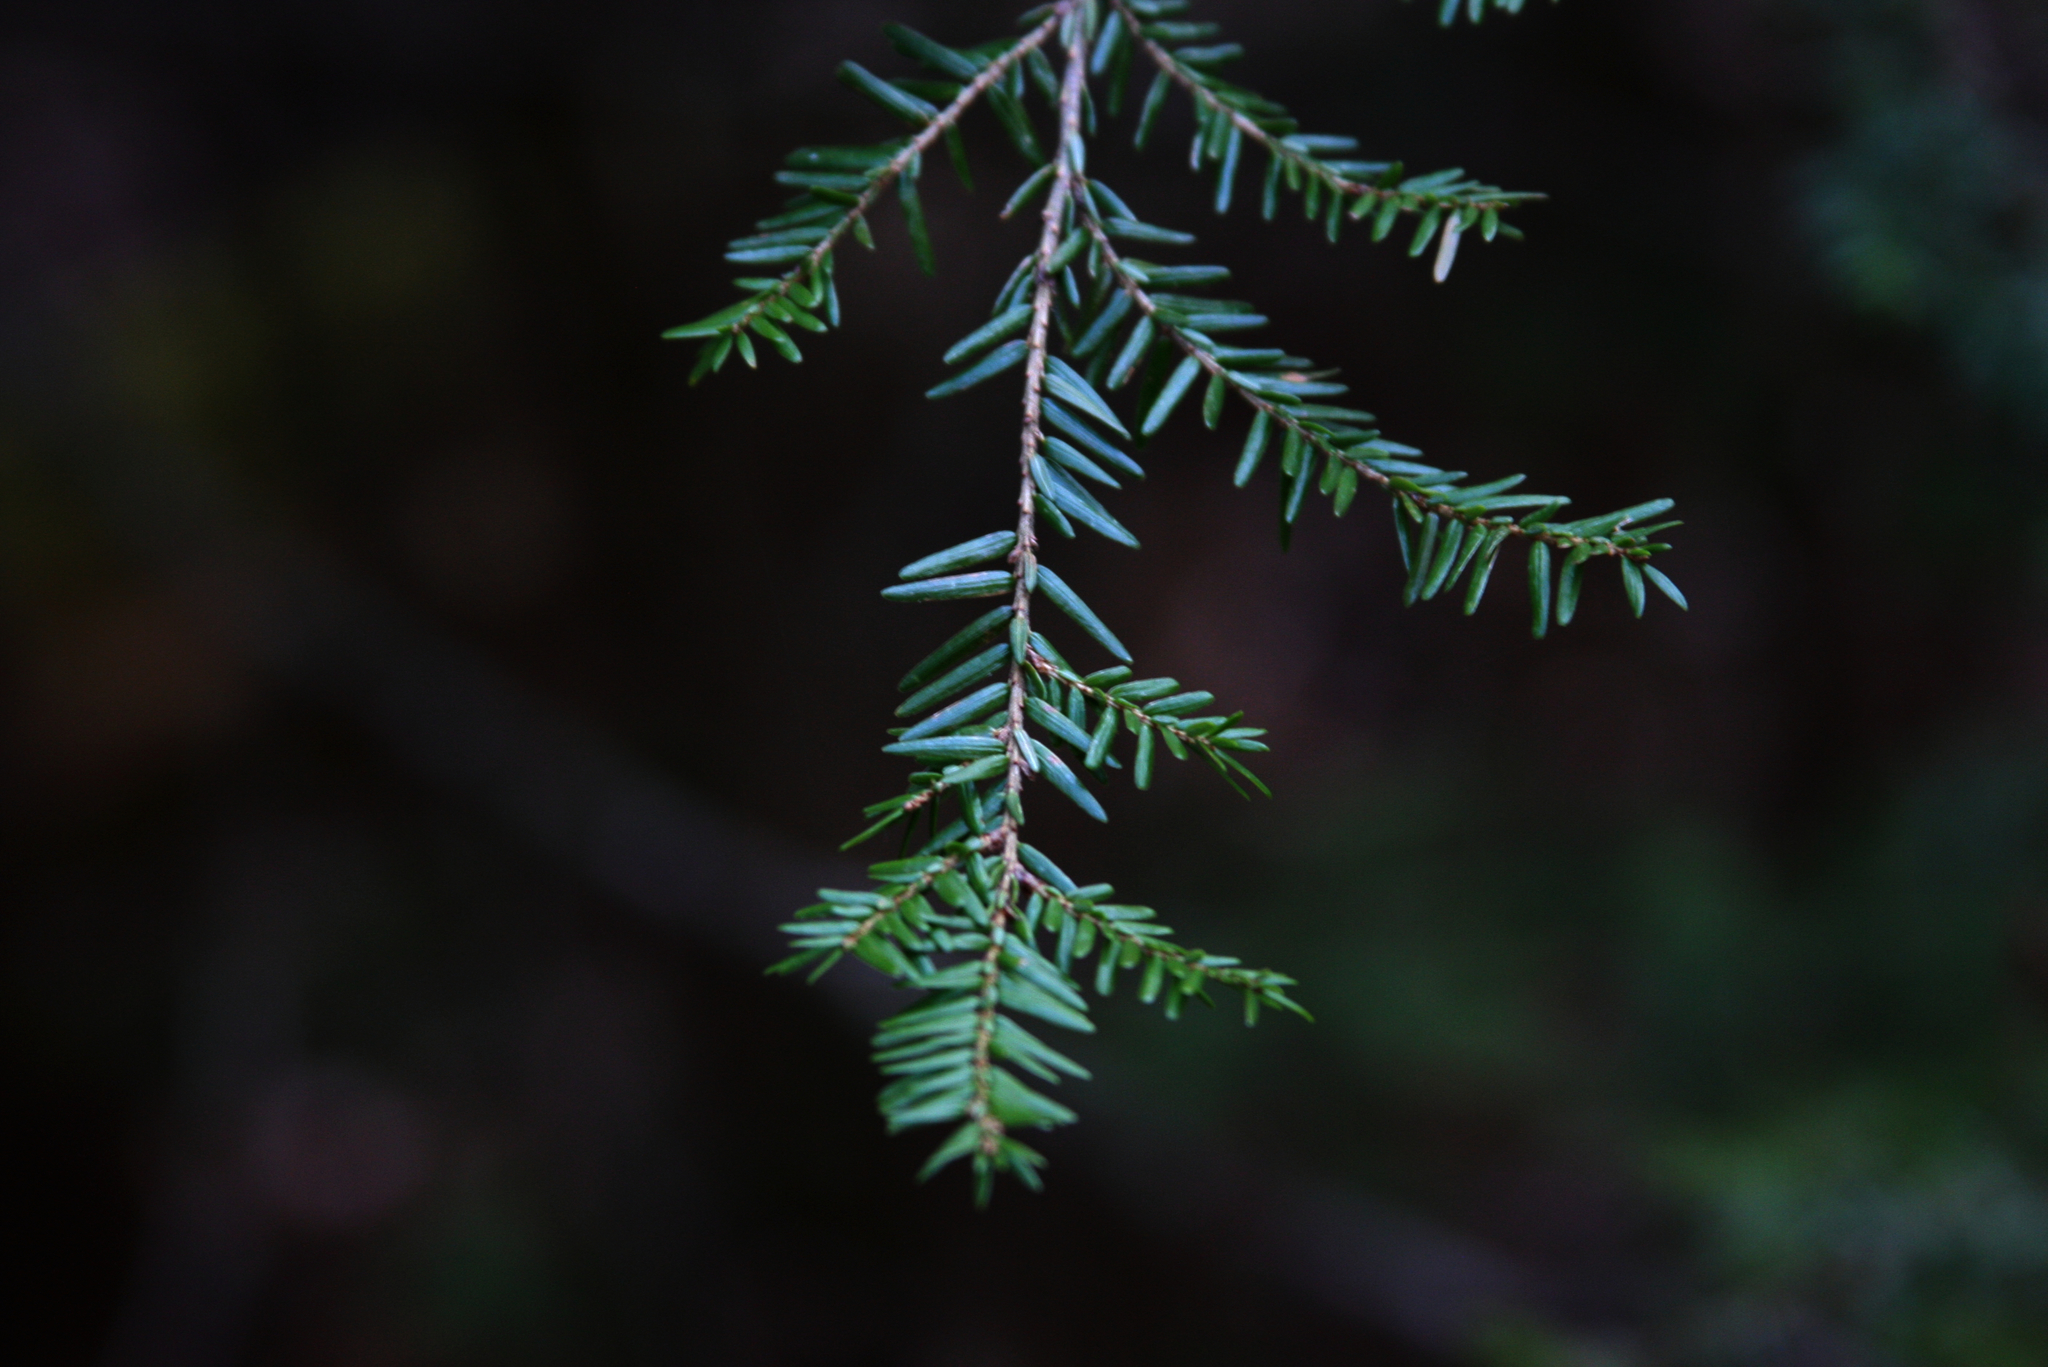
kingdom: Plantae
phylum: Tracheophyta
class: Pinopsida
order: Pinales
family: Pinaceae
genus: Tsuga
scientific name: Tsuga canadensis
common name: Eastern hemlock
